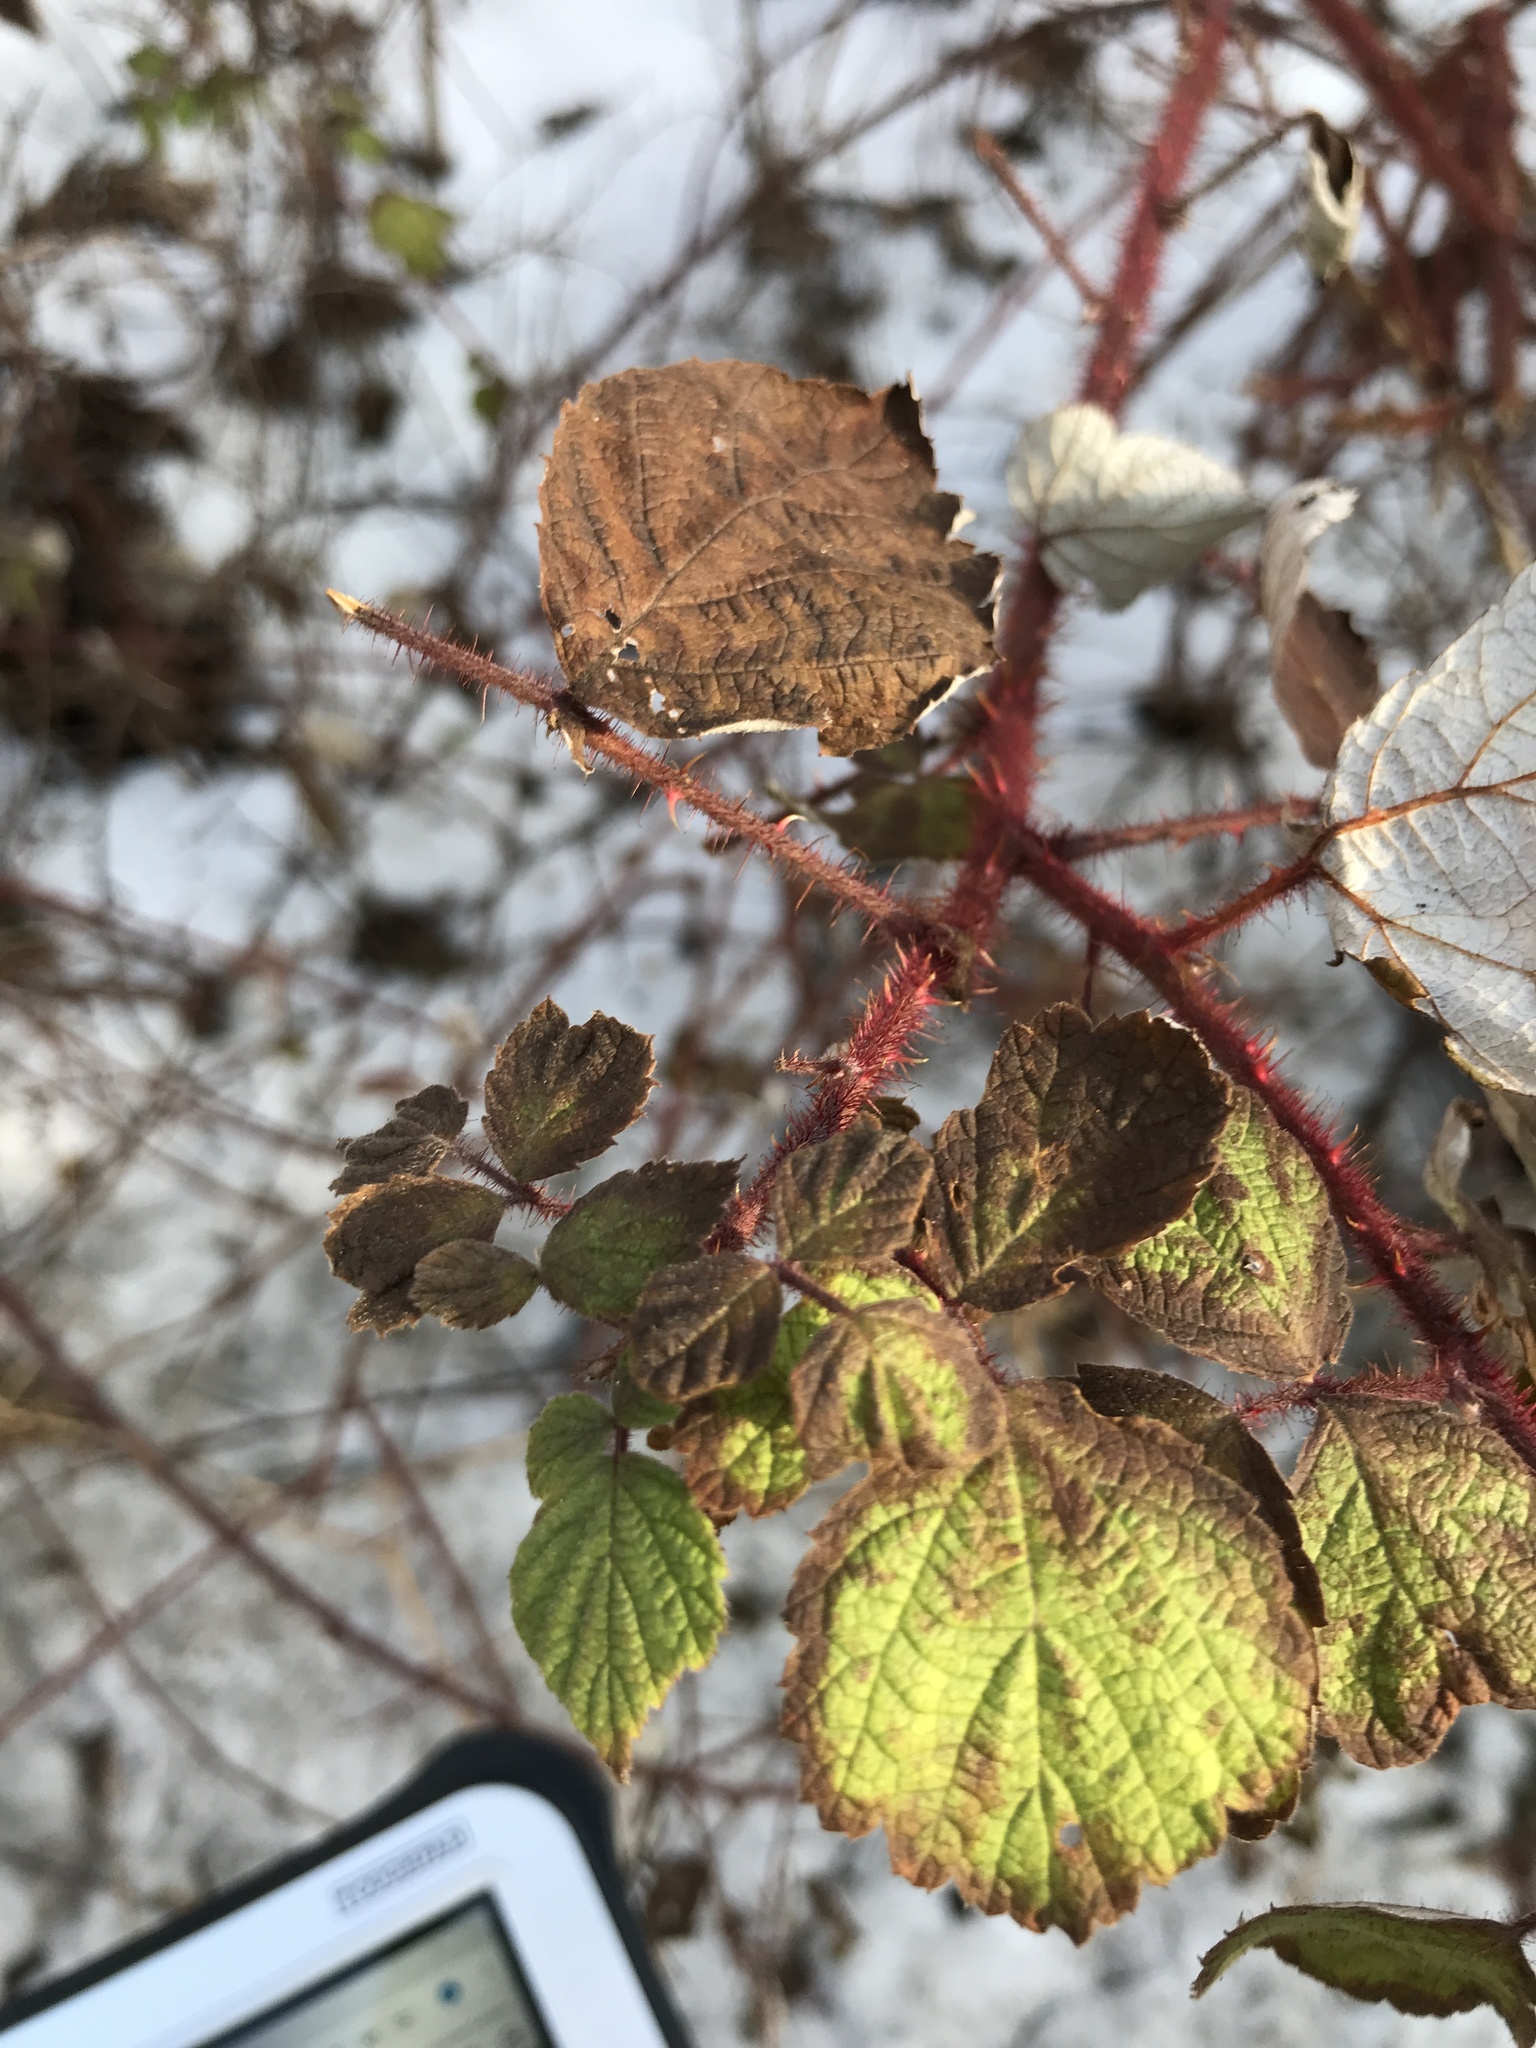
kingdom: Plantae
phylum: Tracheophyta
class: Magnoliopsida
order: Rosales
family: Rosaceae
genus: Rubus
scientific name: Rubus phoenicolasius
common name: Japanese wineberry
